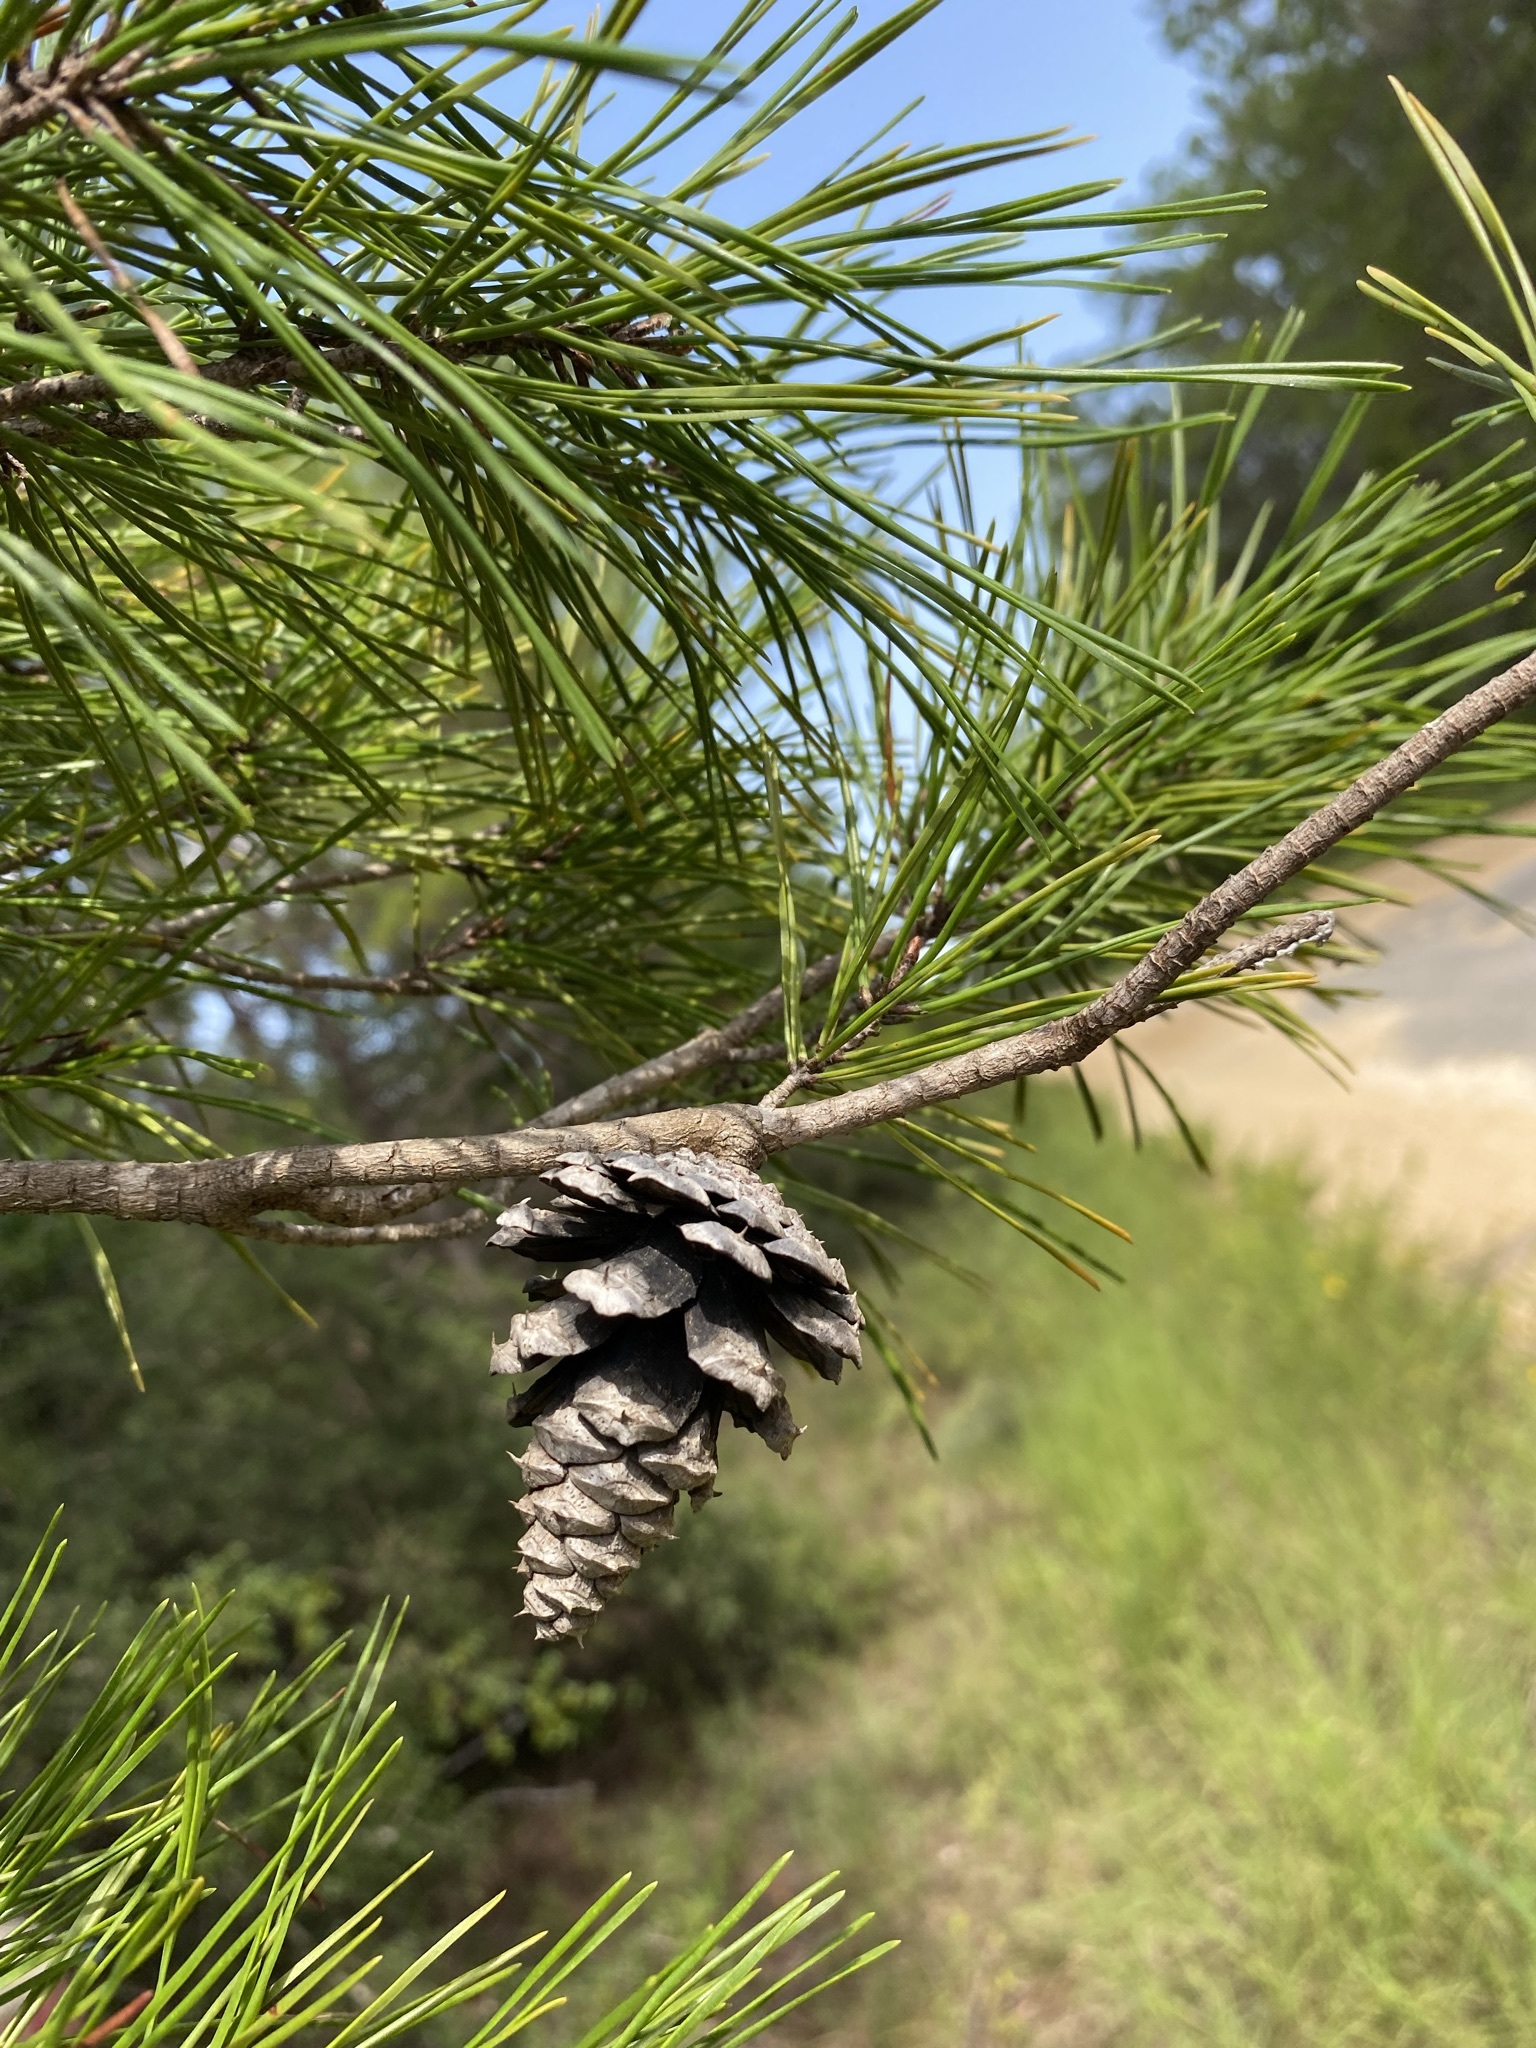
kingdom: Plantae
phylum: Tracheophyta
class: Pinopsida
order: Pinales
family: Pinaceae
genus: Pinus
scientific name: Pinus clausa
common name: Sand pine
